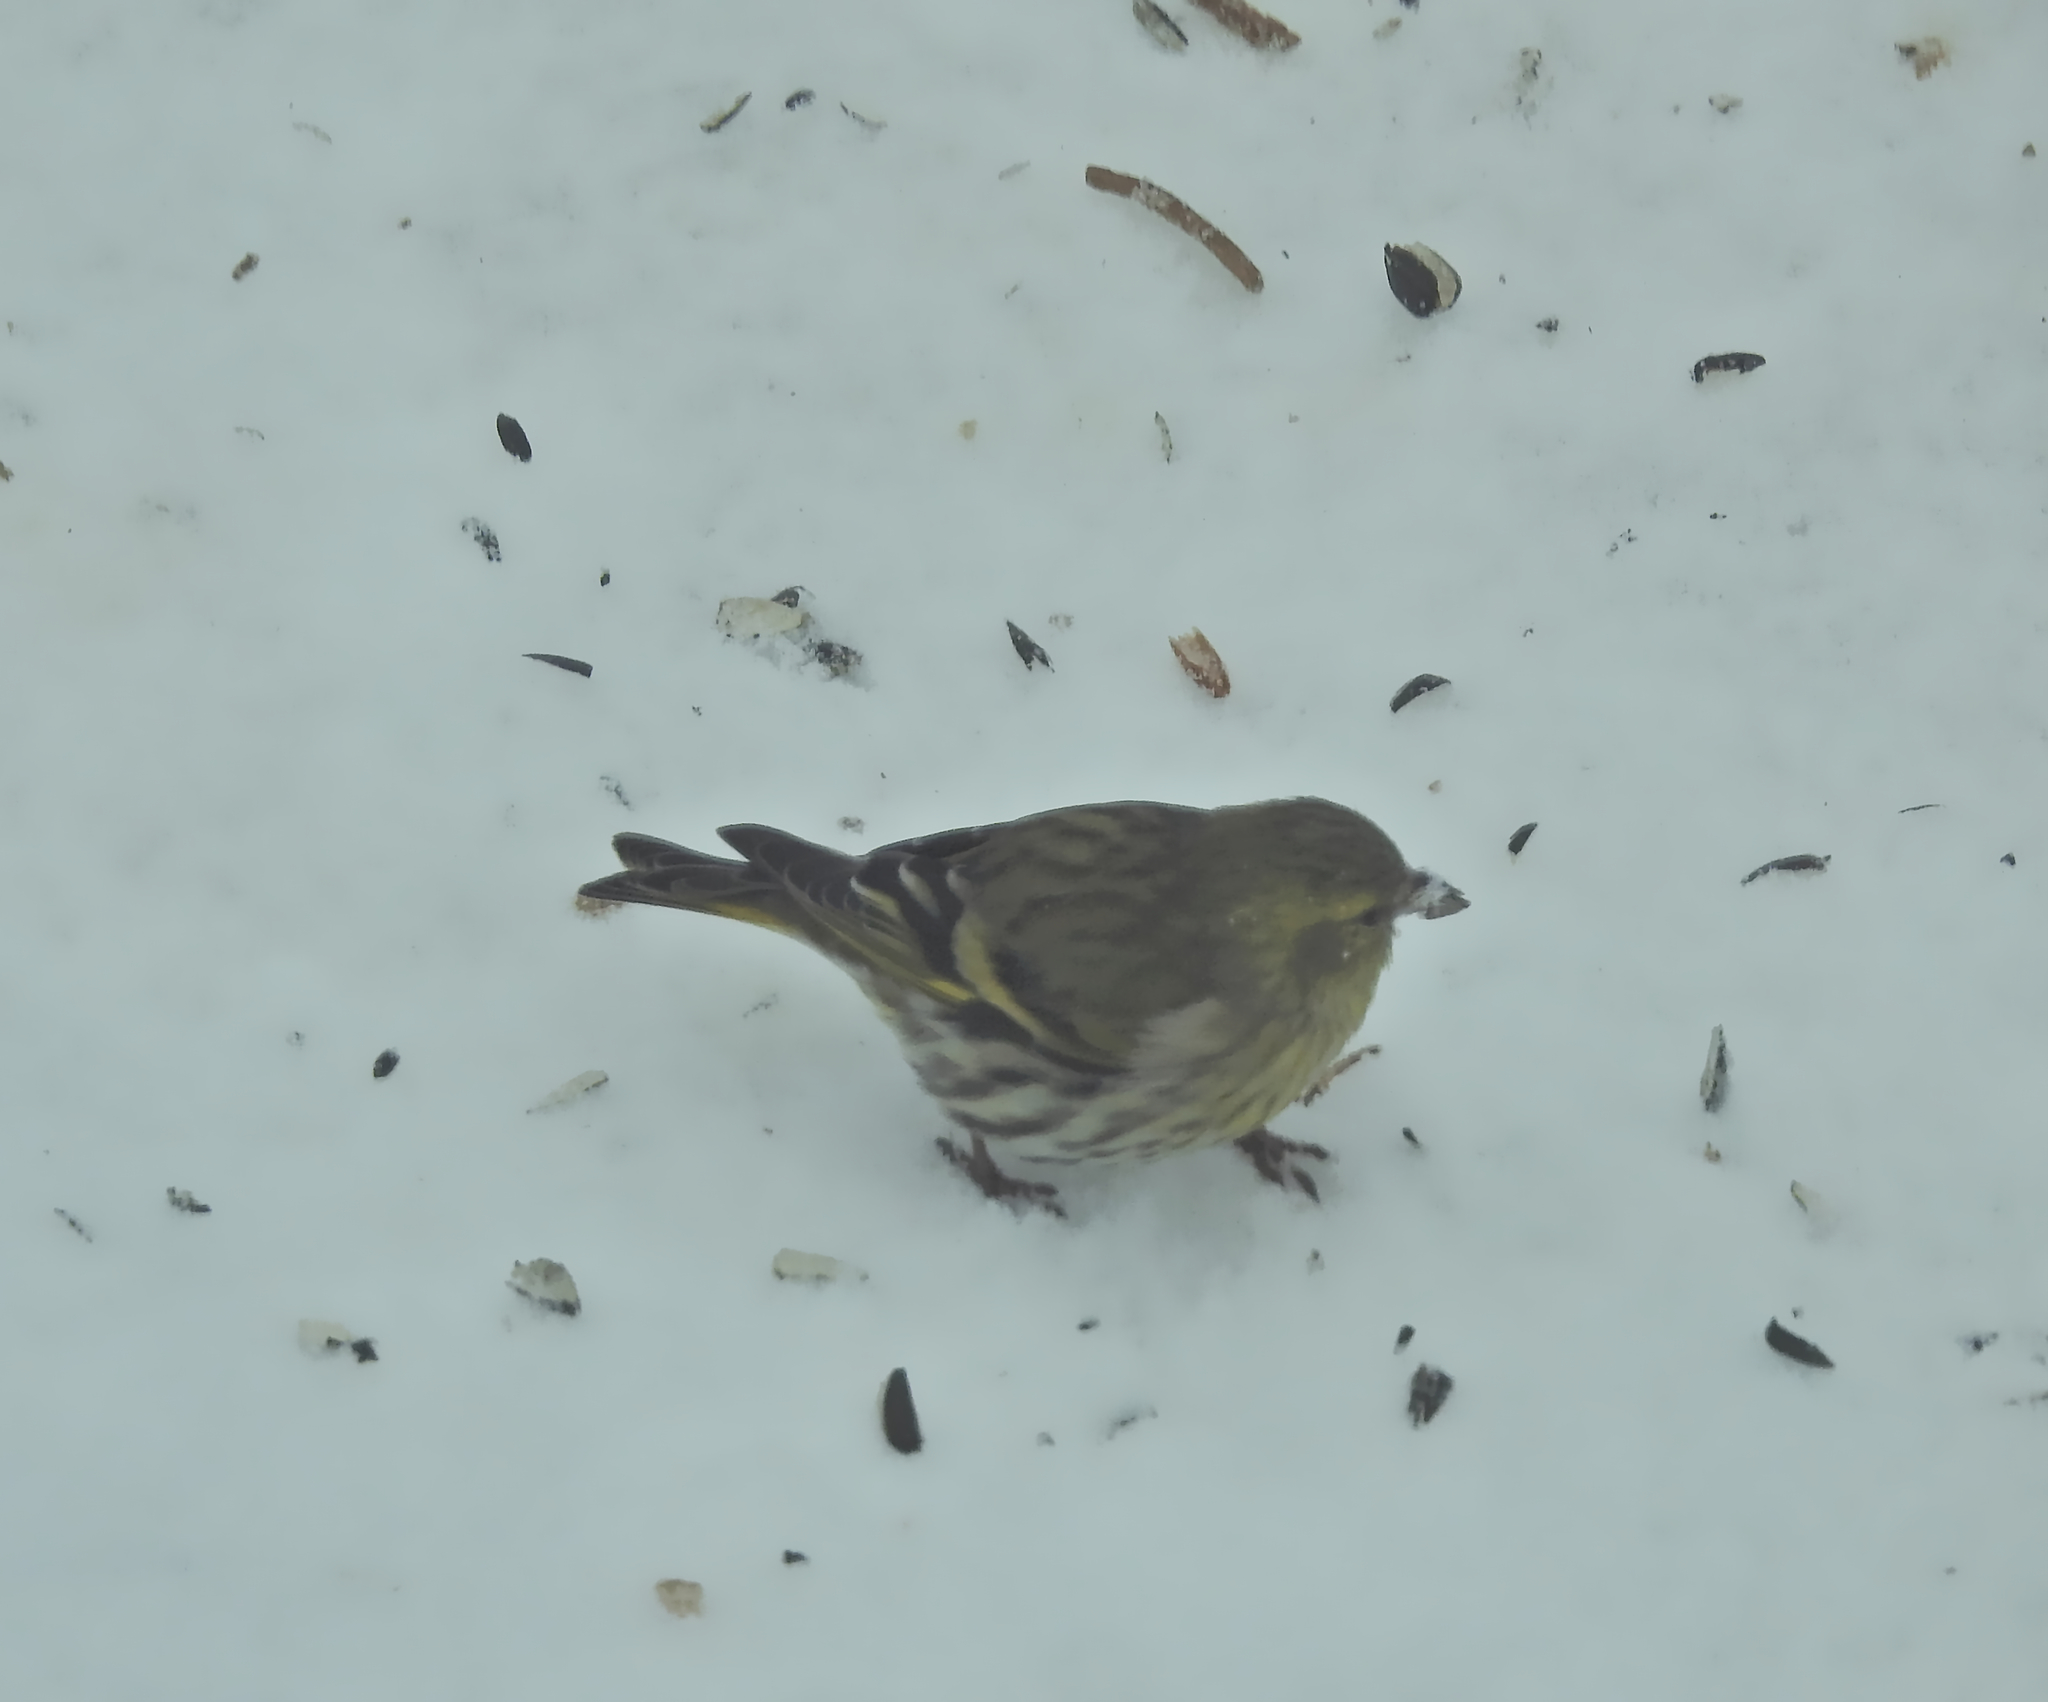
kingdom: Animalia
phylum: Chordata
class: Aves
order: Passeriformes
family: Fringillidae
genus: Spinus
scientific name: Spinus spinus
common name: Eurasian siskin
